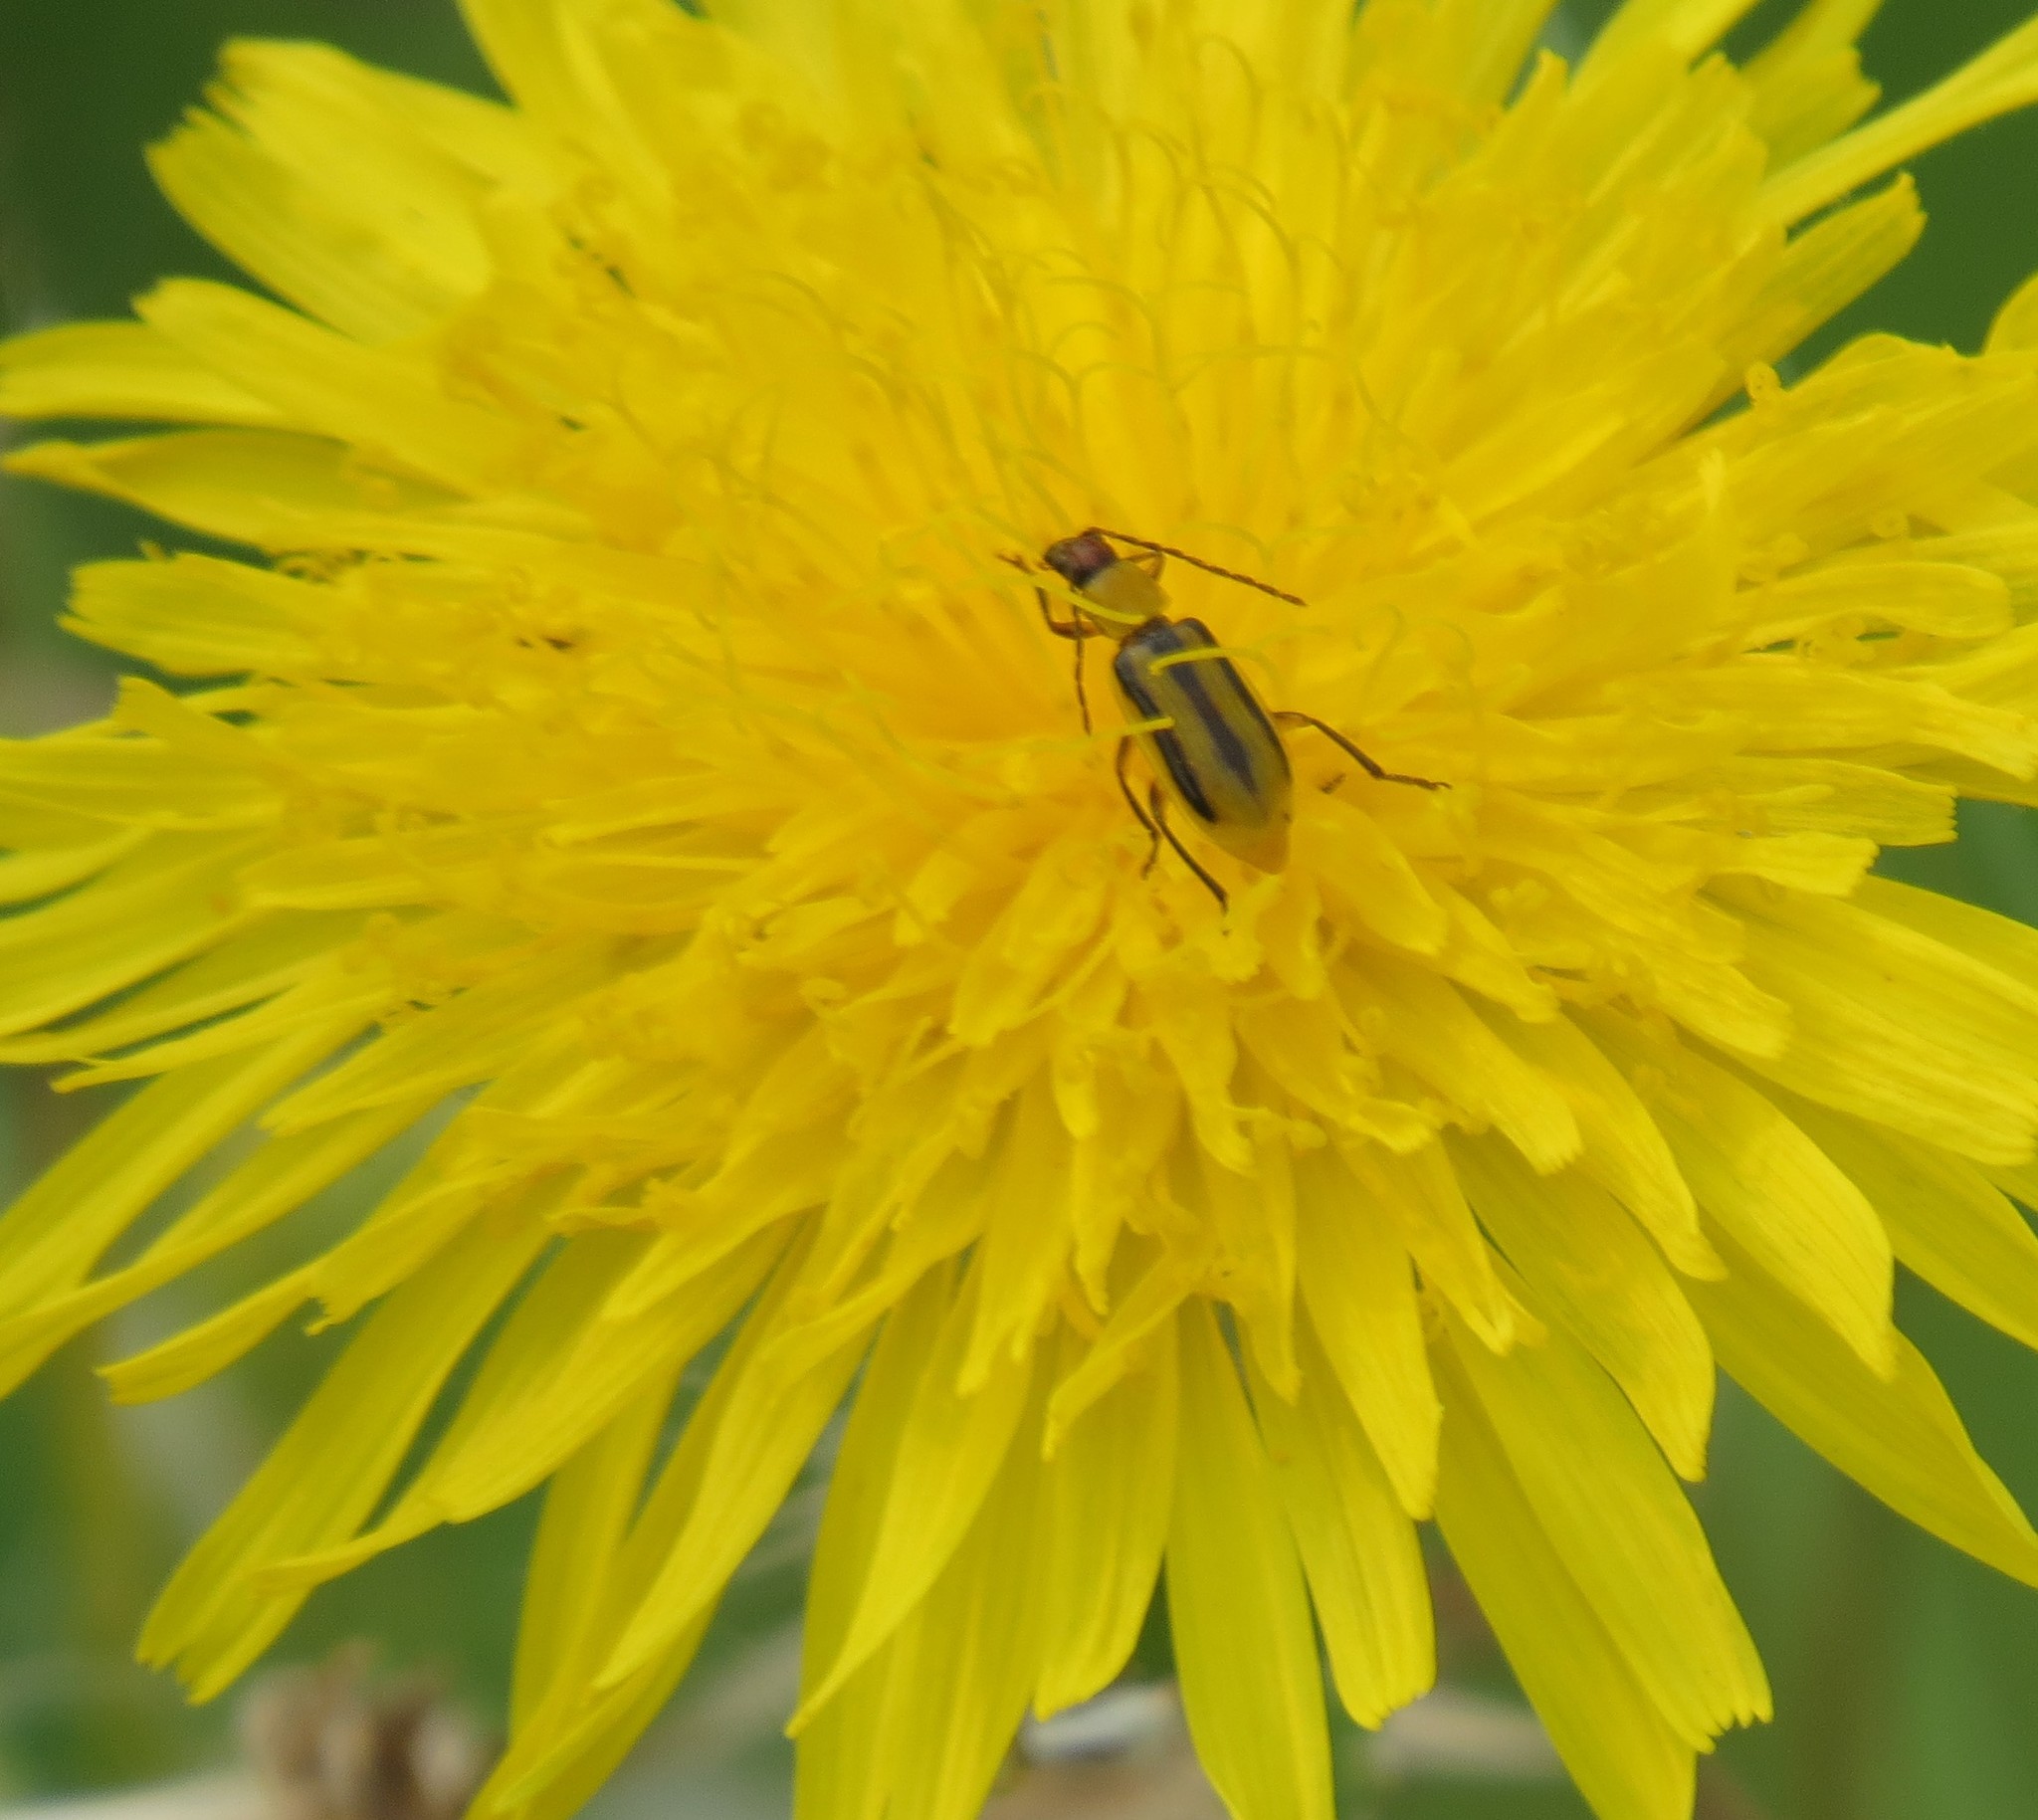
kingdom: Animalia
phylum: Arthropoda
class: Insecta
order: Coleoptera
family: Chrysomelidae
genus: Acalymma
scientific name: Acalymma vittatum
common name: Striped cucumber beetle
